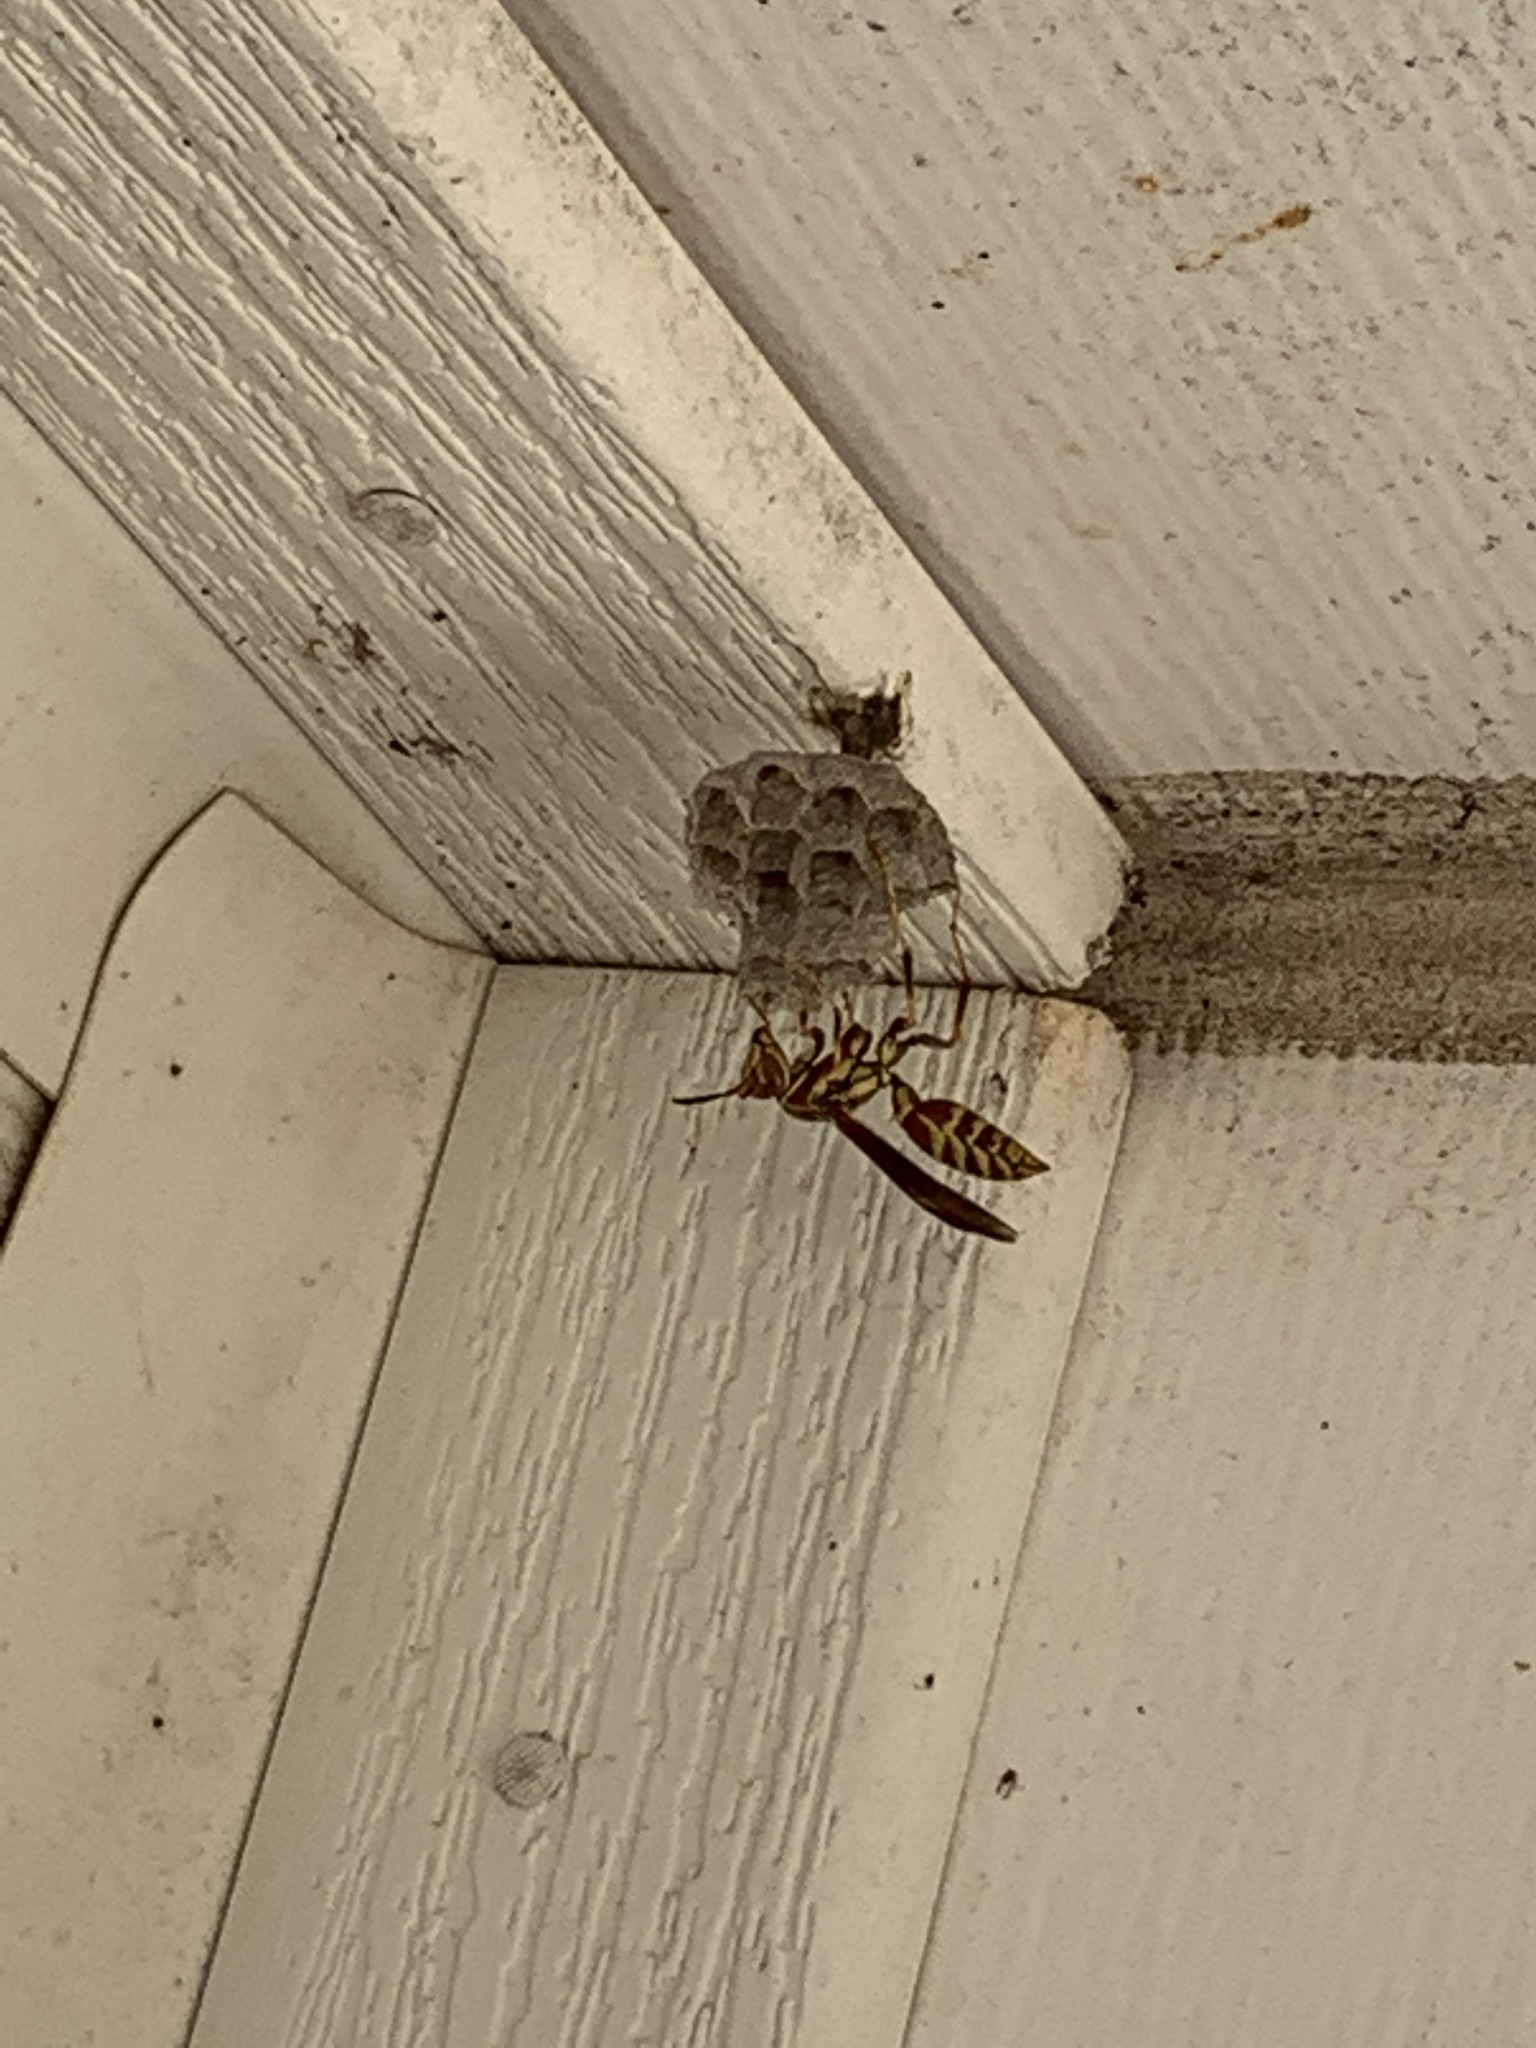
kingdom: Animalia
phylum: Arthropoda
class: Insecta
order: Hymenoptera
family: Eumenidae
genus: Polistes
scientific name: Polistes exclamans
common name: Paper wasp
